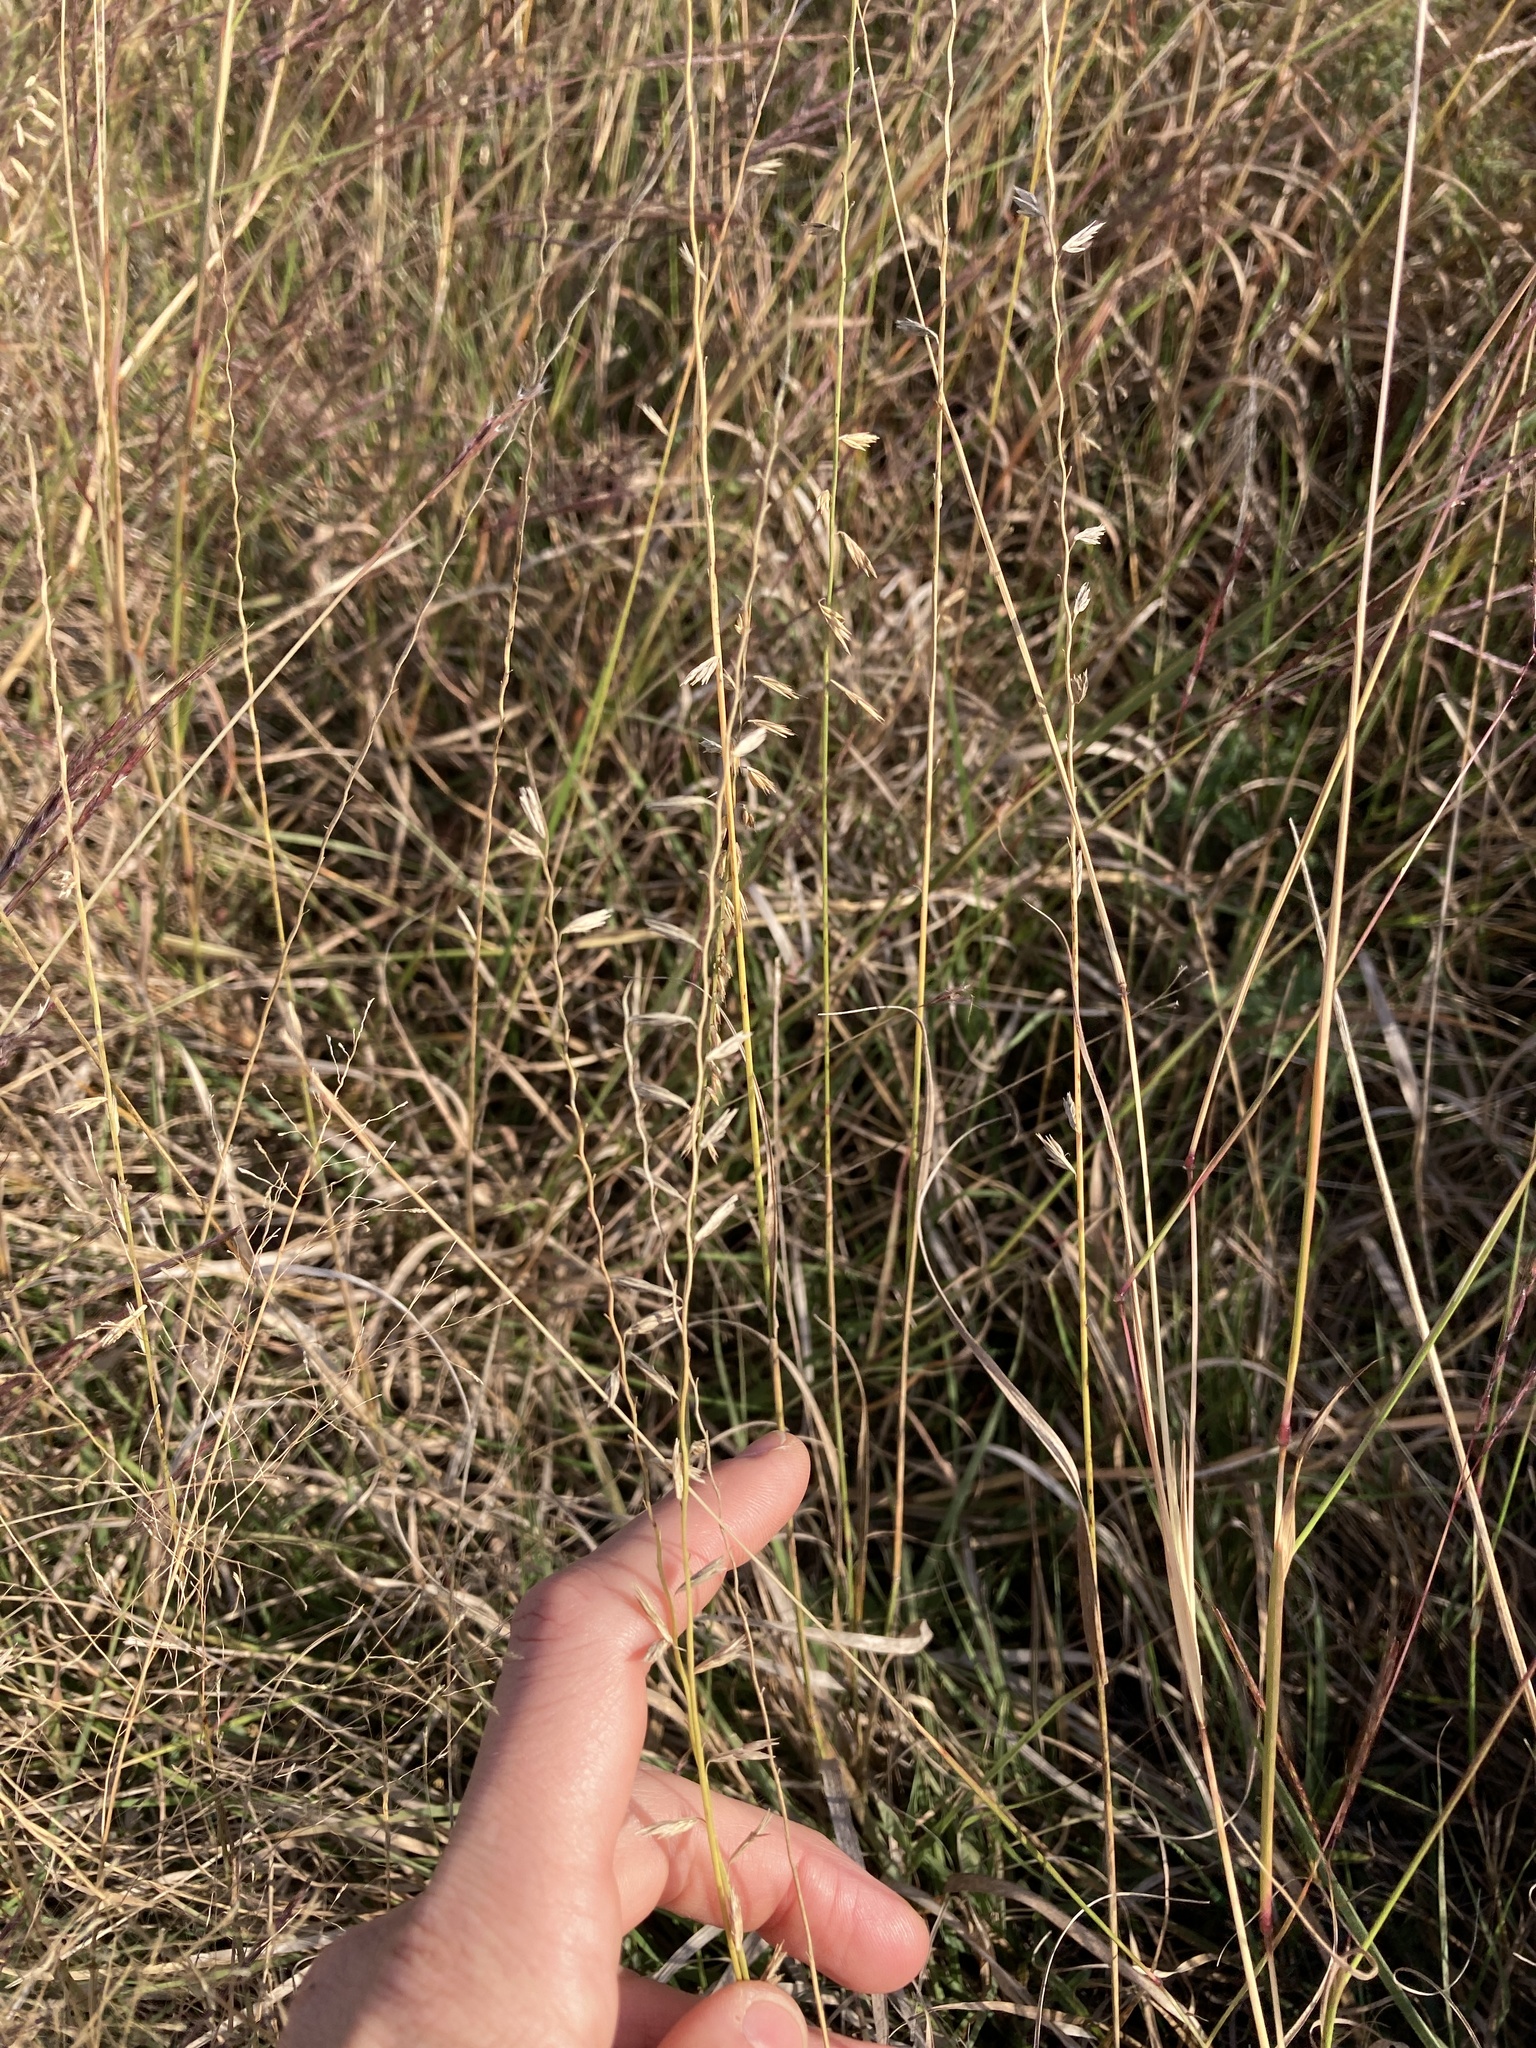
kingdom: Plantae
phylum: Tracheophyta
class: Liliopsida
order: Poales
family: Poaceae
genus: Bouteloua
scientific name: Bouteloua curtipendula
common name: Side-oats grama
